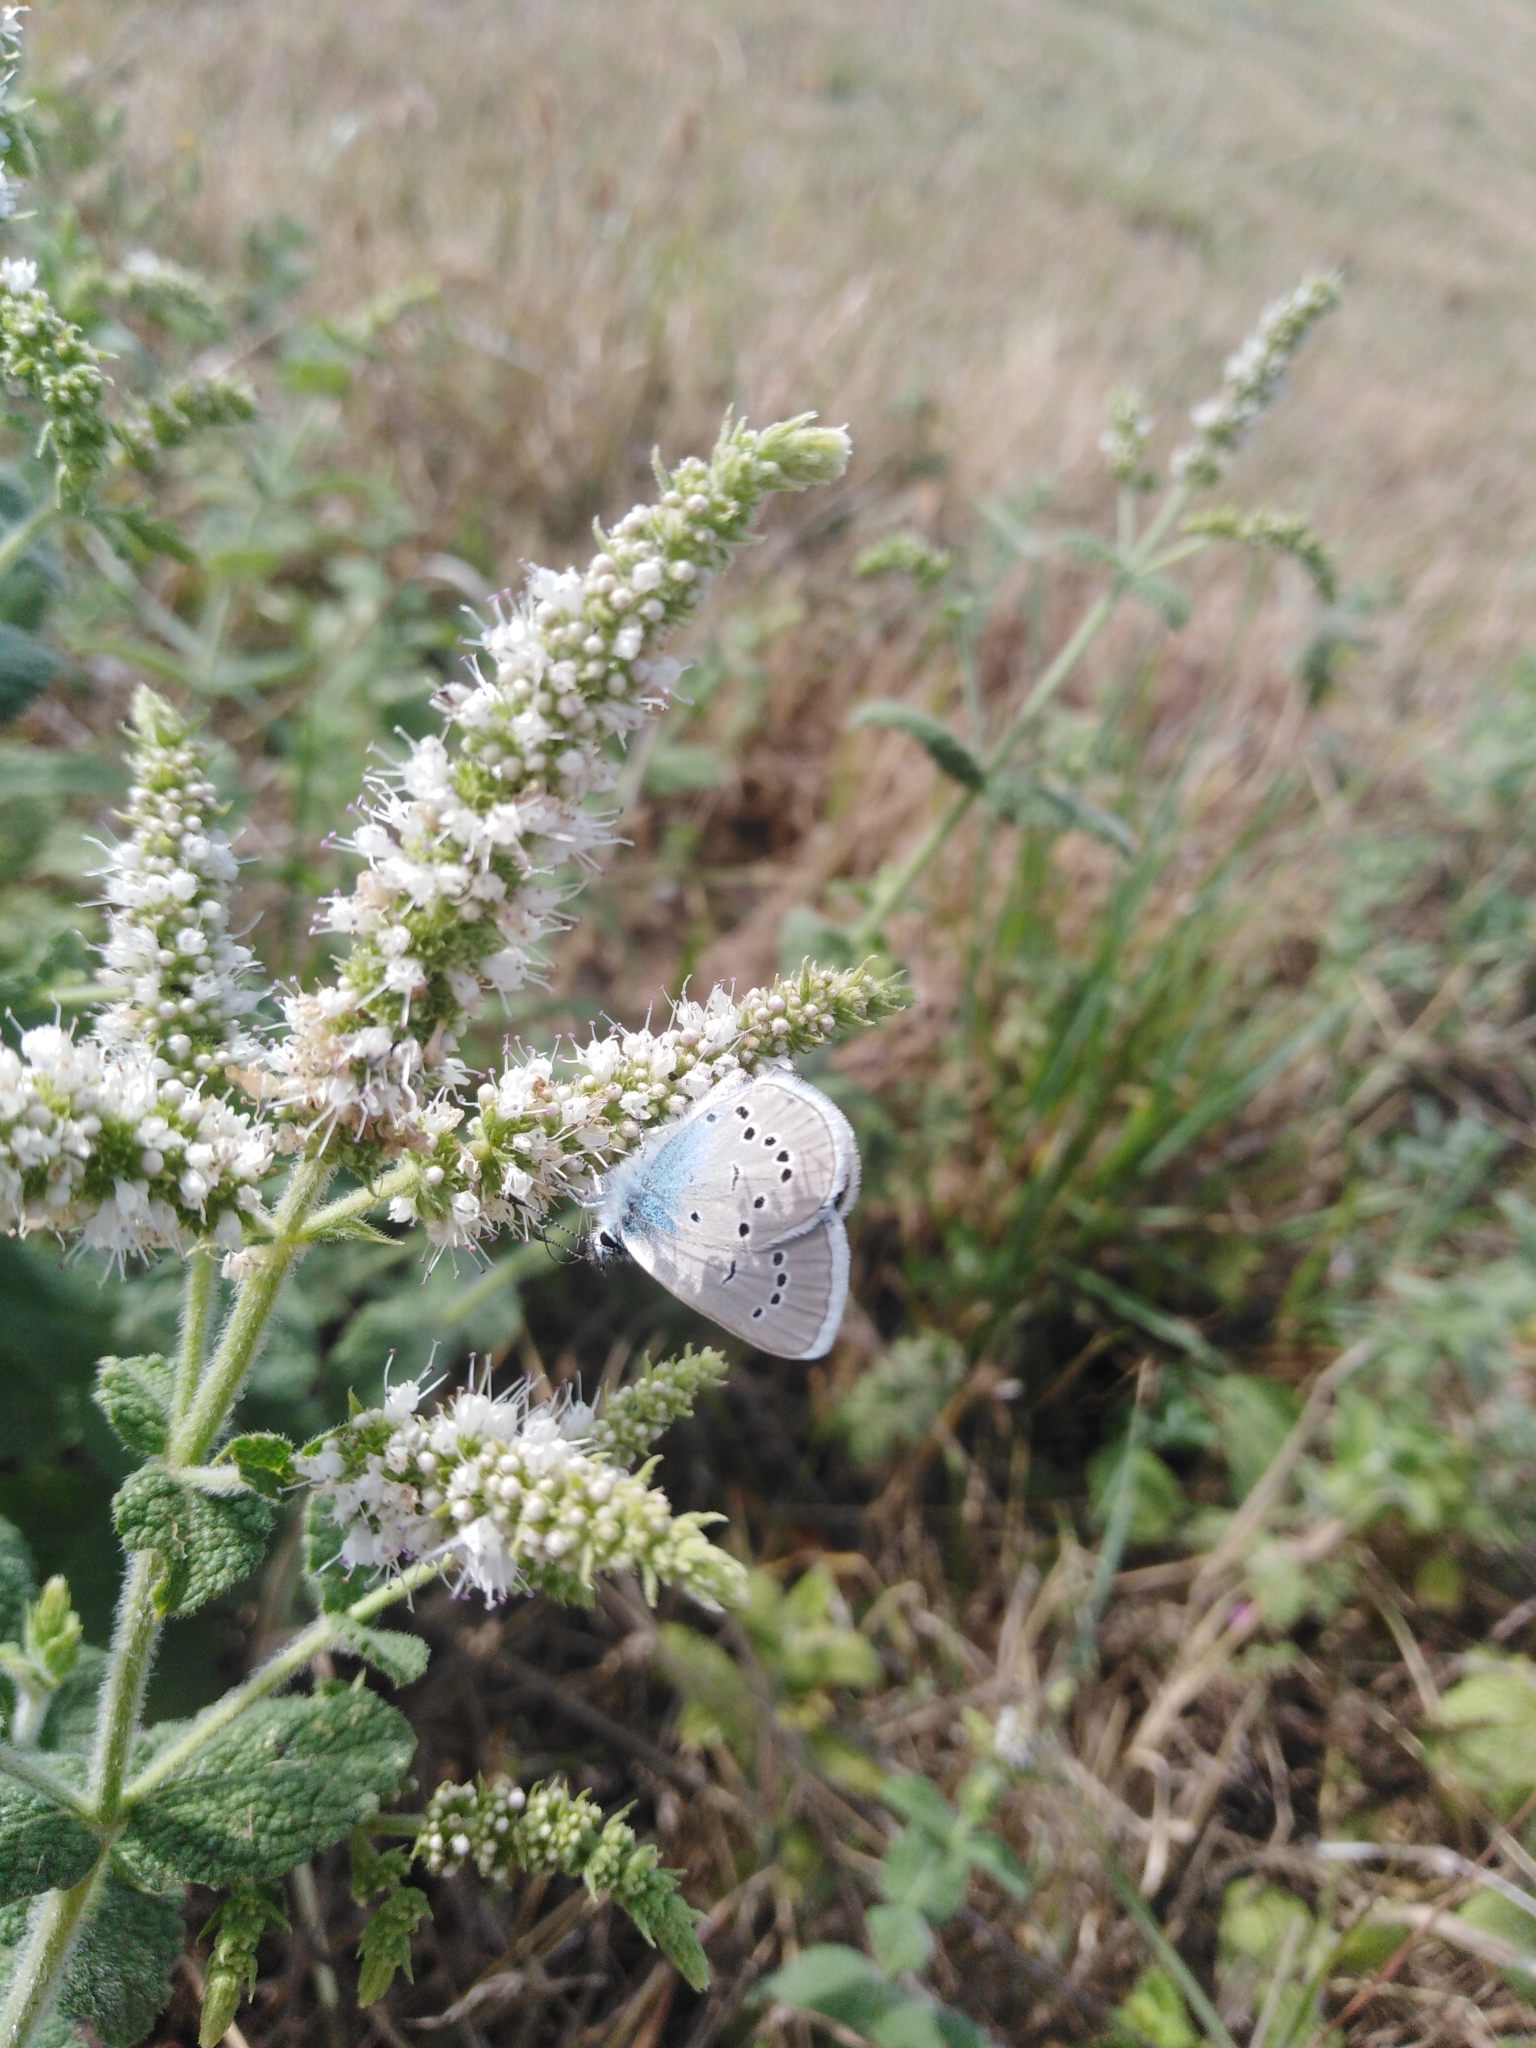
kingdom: Animalia
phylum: Arthropoda
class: Insecta
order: Lepidoptera
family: Lycaenidae
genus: Cyaniris
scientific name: Cyaniris semiargus
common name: Mazarine blue
